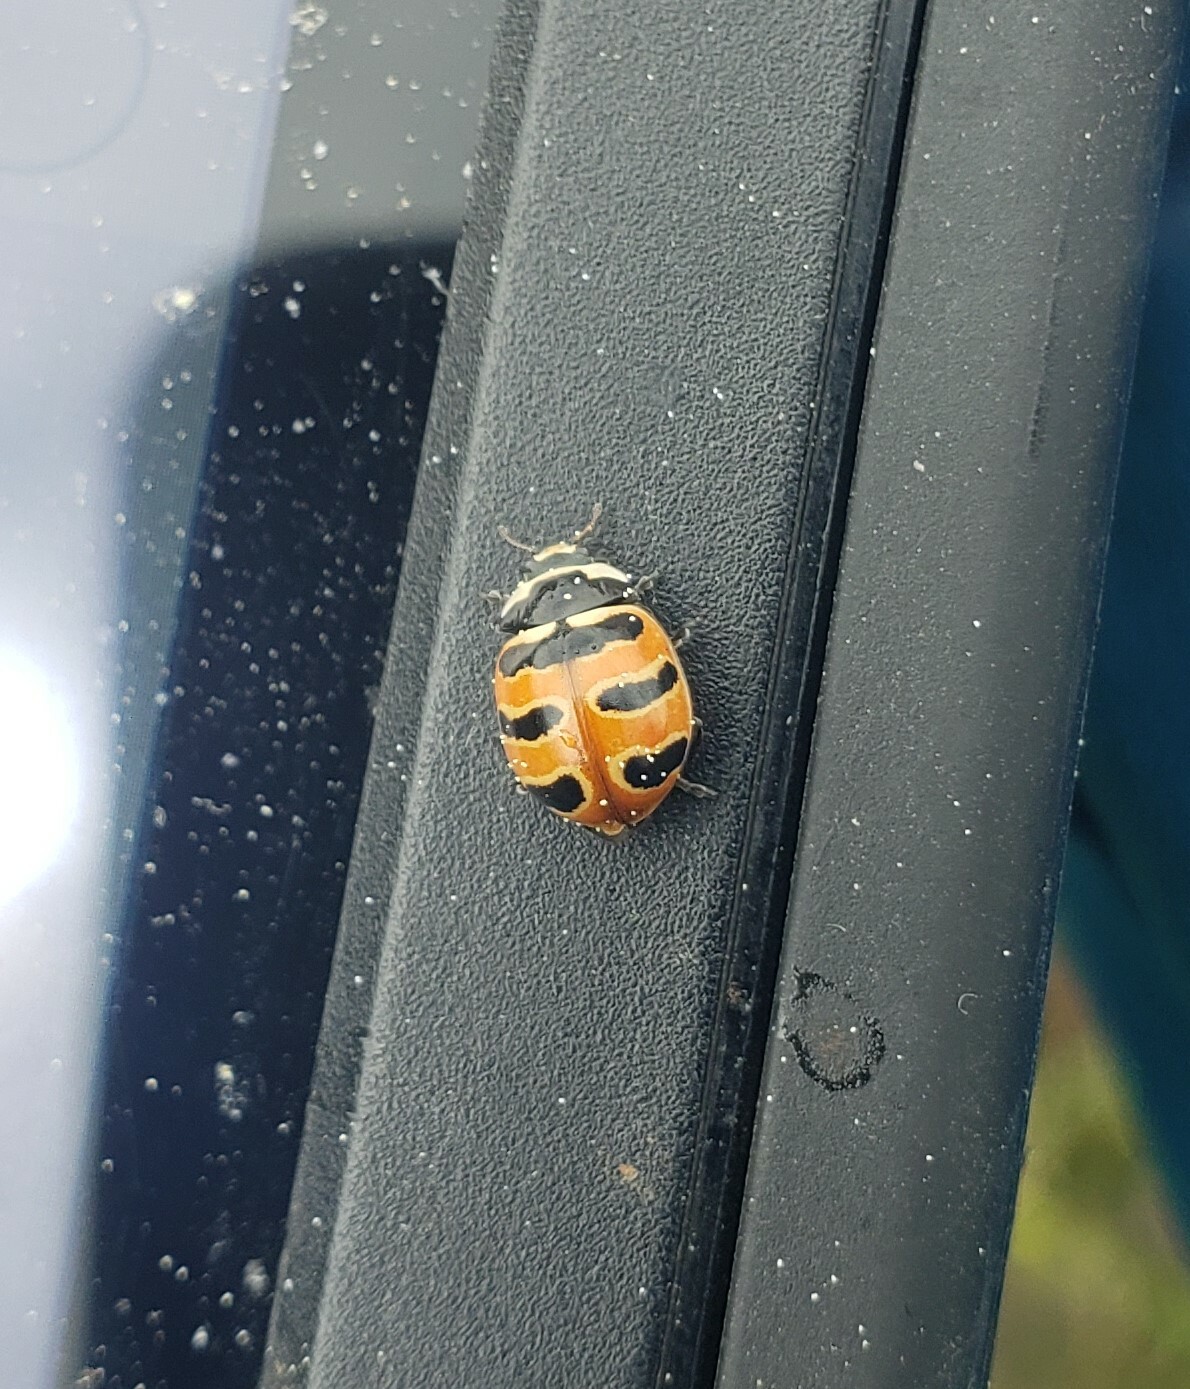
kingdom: Animalia
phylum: Arthropoda
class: Insecta
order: Coleoptera
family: Coccinellidae
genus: Coccinella
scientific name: Coccinella trifasciata
